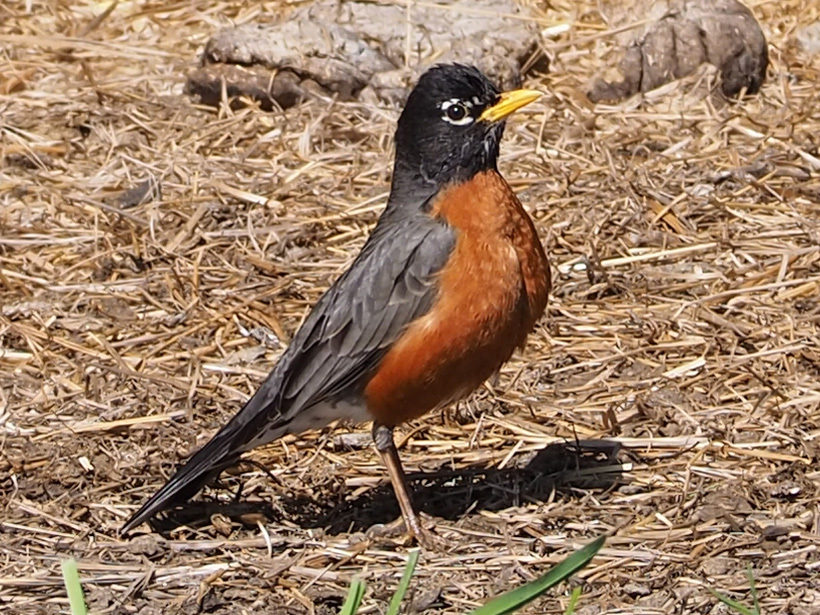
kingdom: Animalia
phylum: Chordata
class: Aves
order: Passeriformes
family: Turdidae
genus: Turdus
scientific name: Turdus migratorius
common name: American robin
